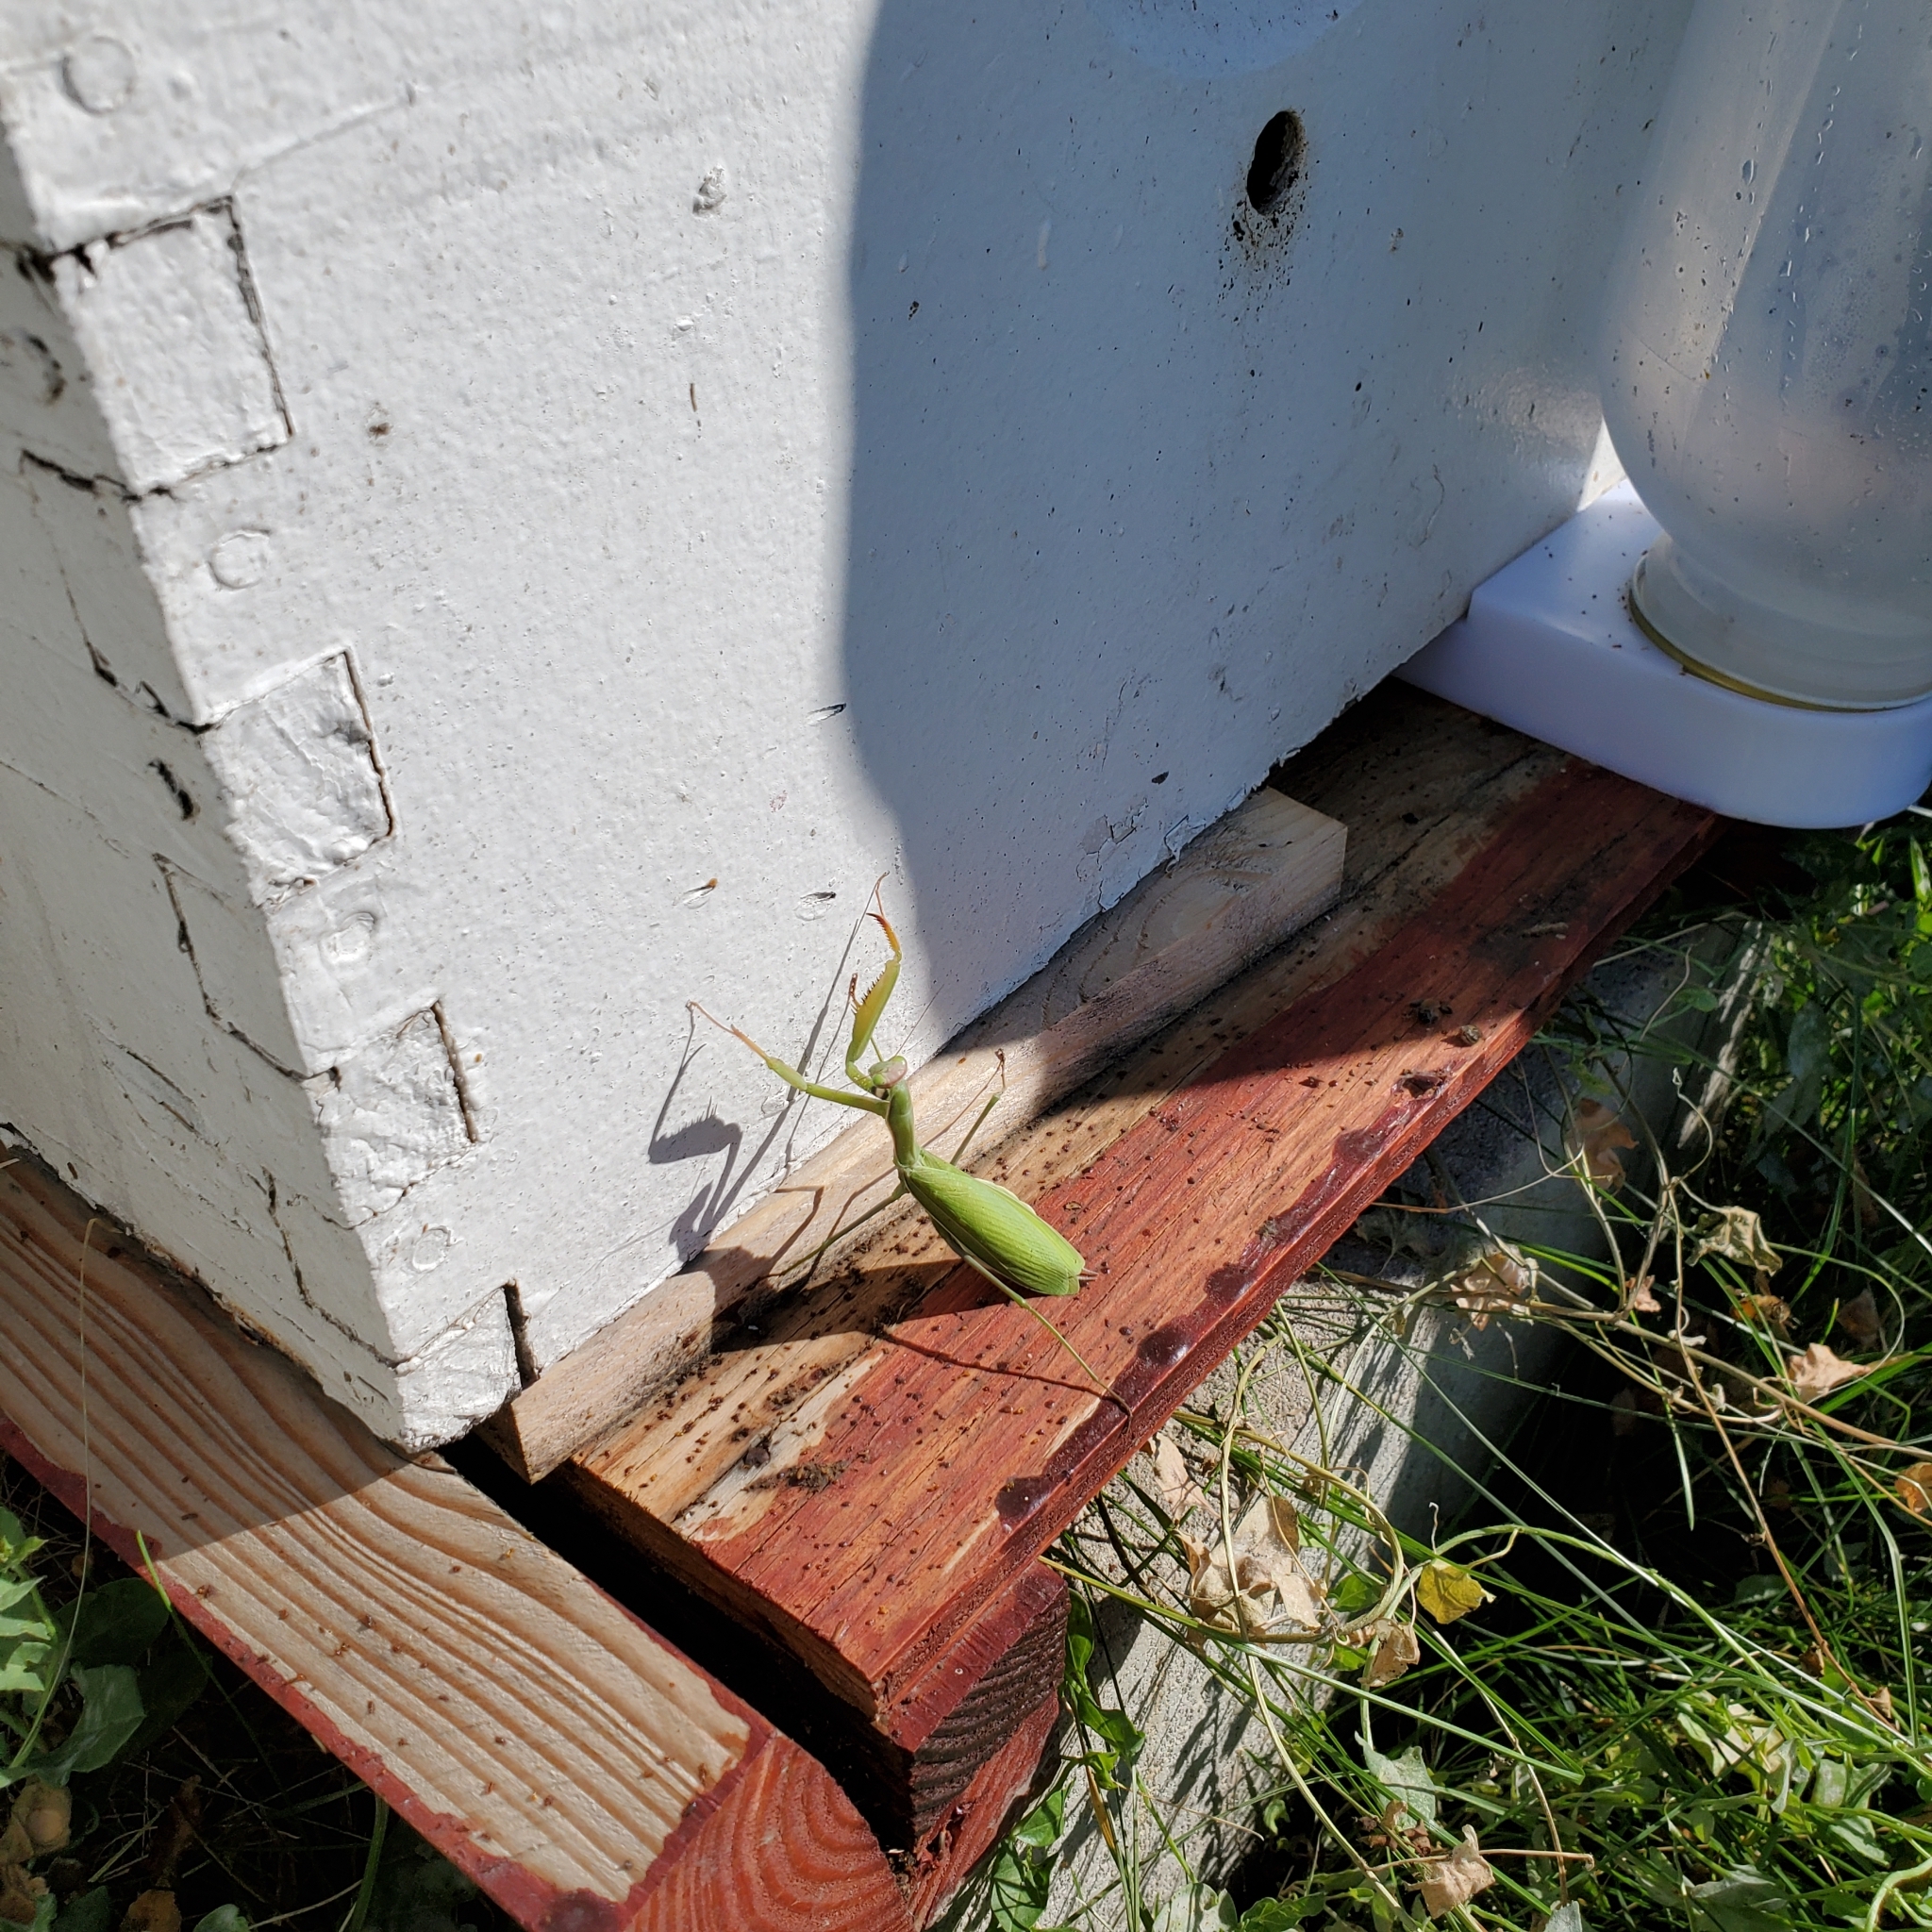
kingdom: Animalia
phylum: Arthropoda
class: Insecta
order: Mantodea
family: Mantidae
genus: Mantis
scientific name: Mantis religiosa
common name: Praying mantis
